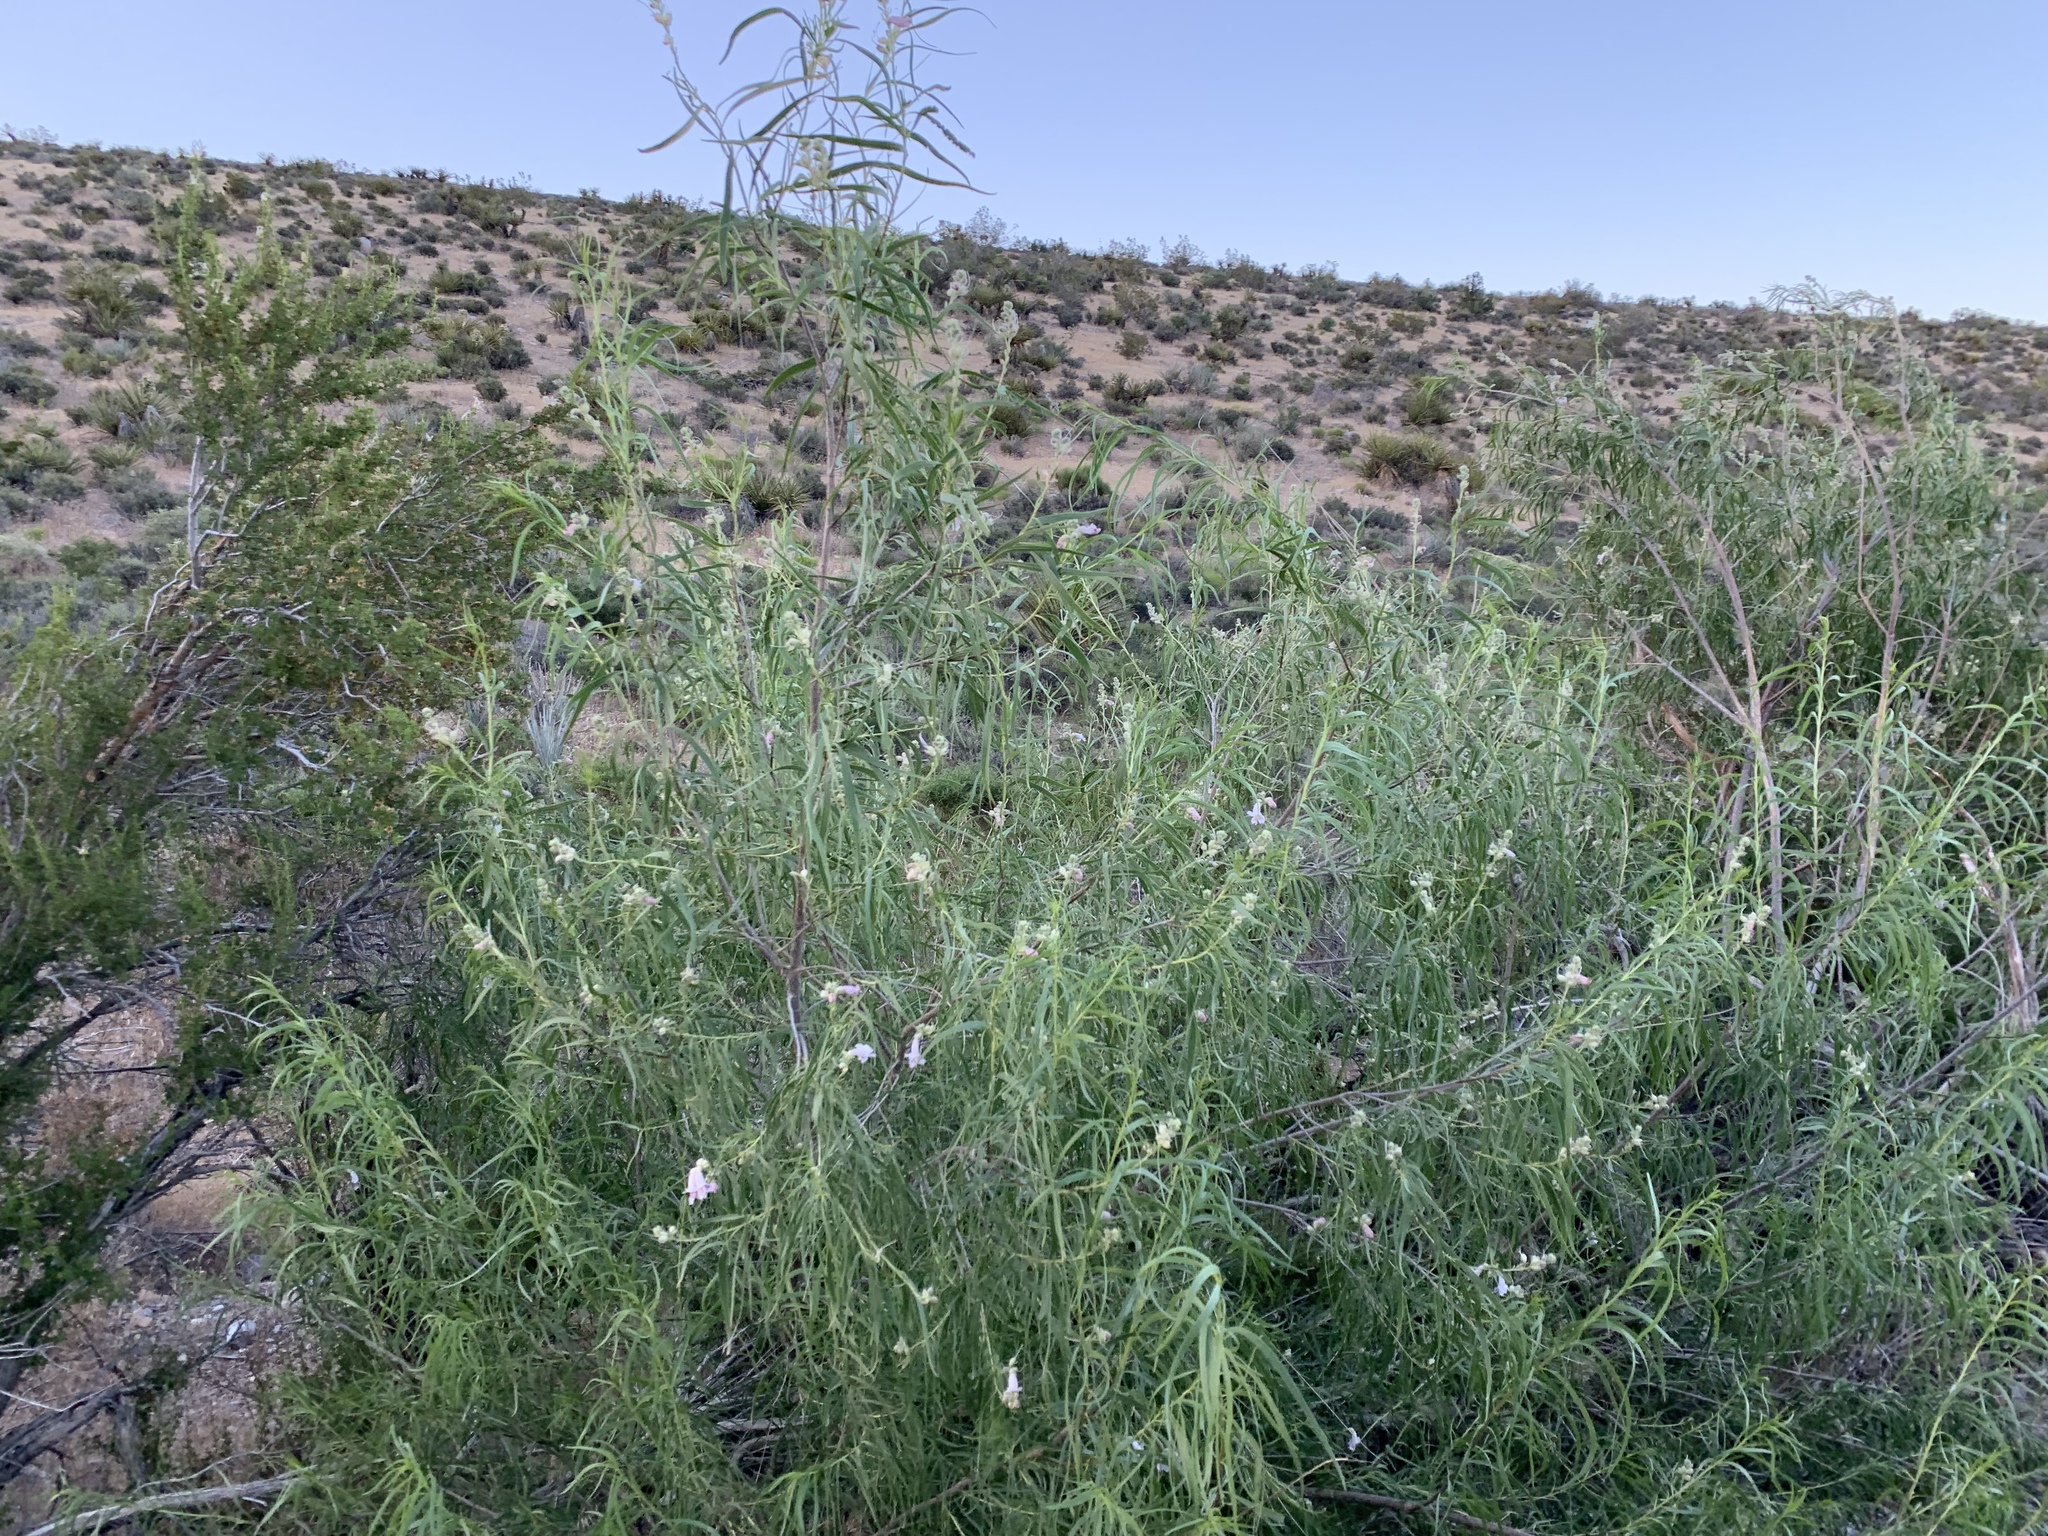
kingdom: Plantae
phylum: Tracheophyta
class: Magnoliopsida
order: Lamiales
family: Bignoniaceae
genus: Chilopsis
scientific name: Chilopsis linearis
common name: Desert-willow
